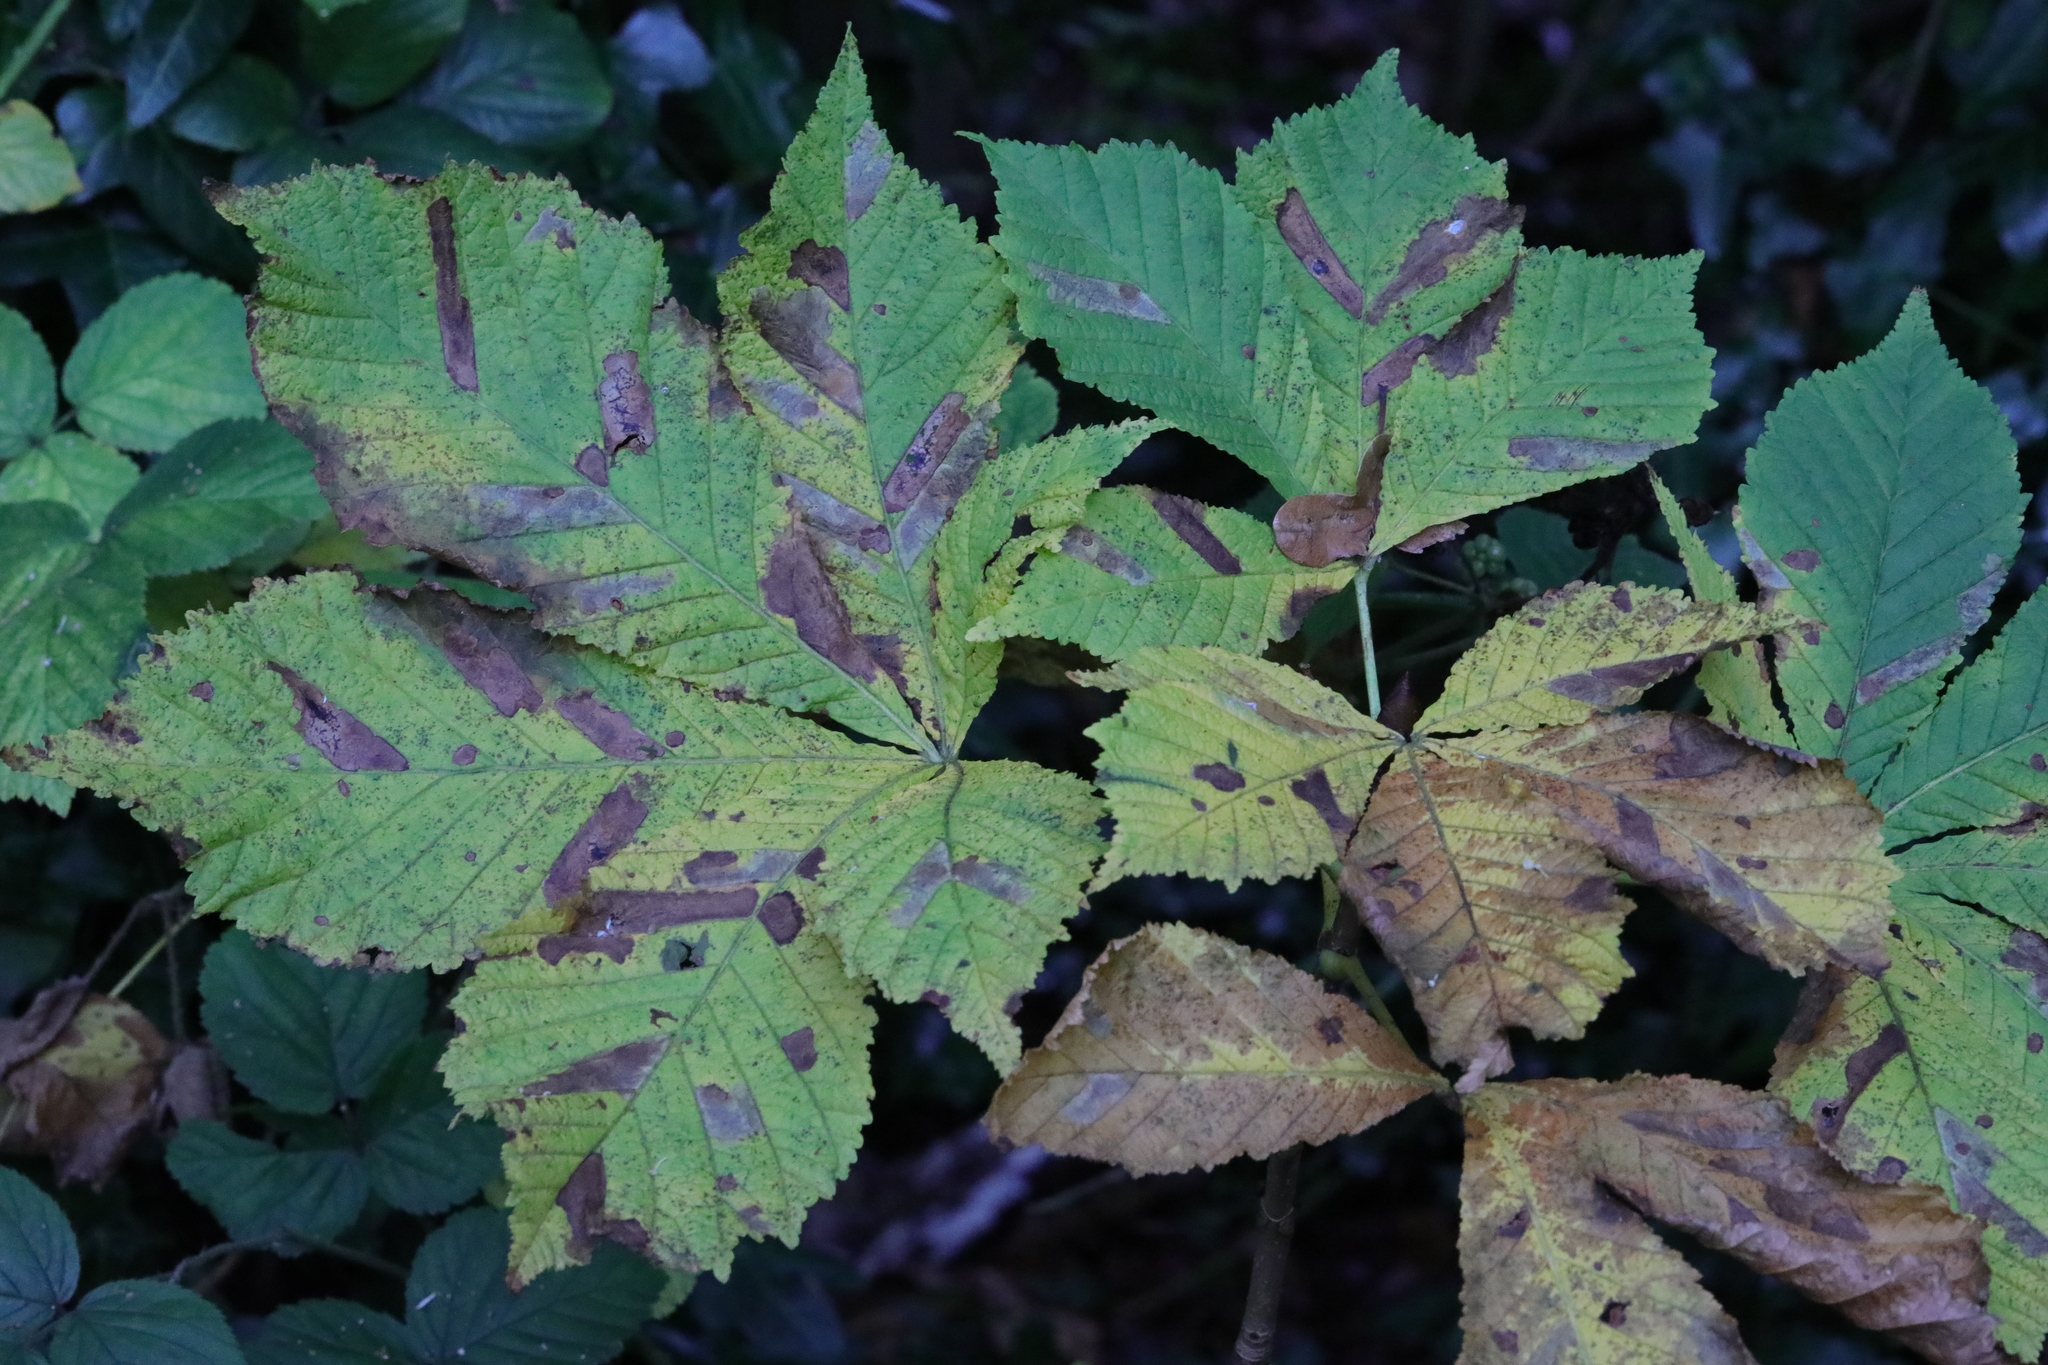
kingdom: Plantae
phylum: Tracheophyta
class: Magnoliopsida
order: Sapindales
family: Sapindaceae
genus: Aesculus
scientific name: Aesculus hippocastanum
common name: Horse-chestnut
